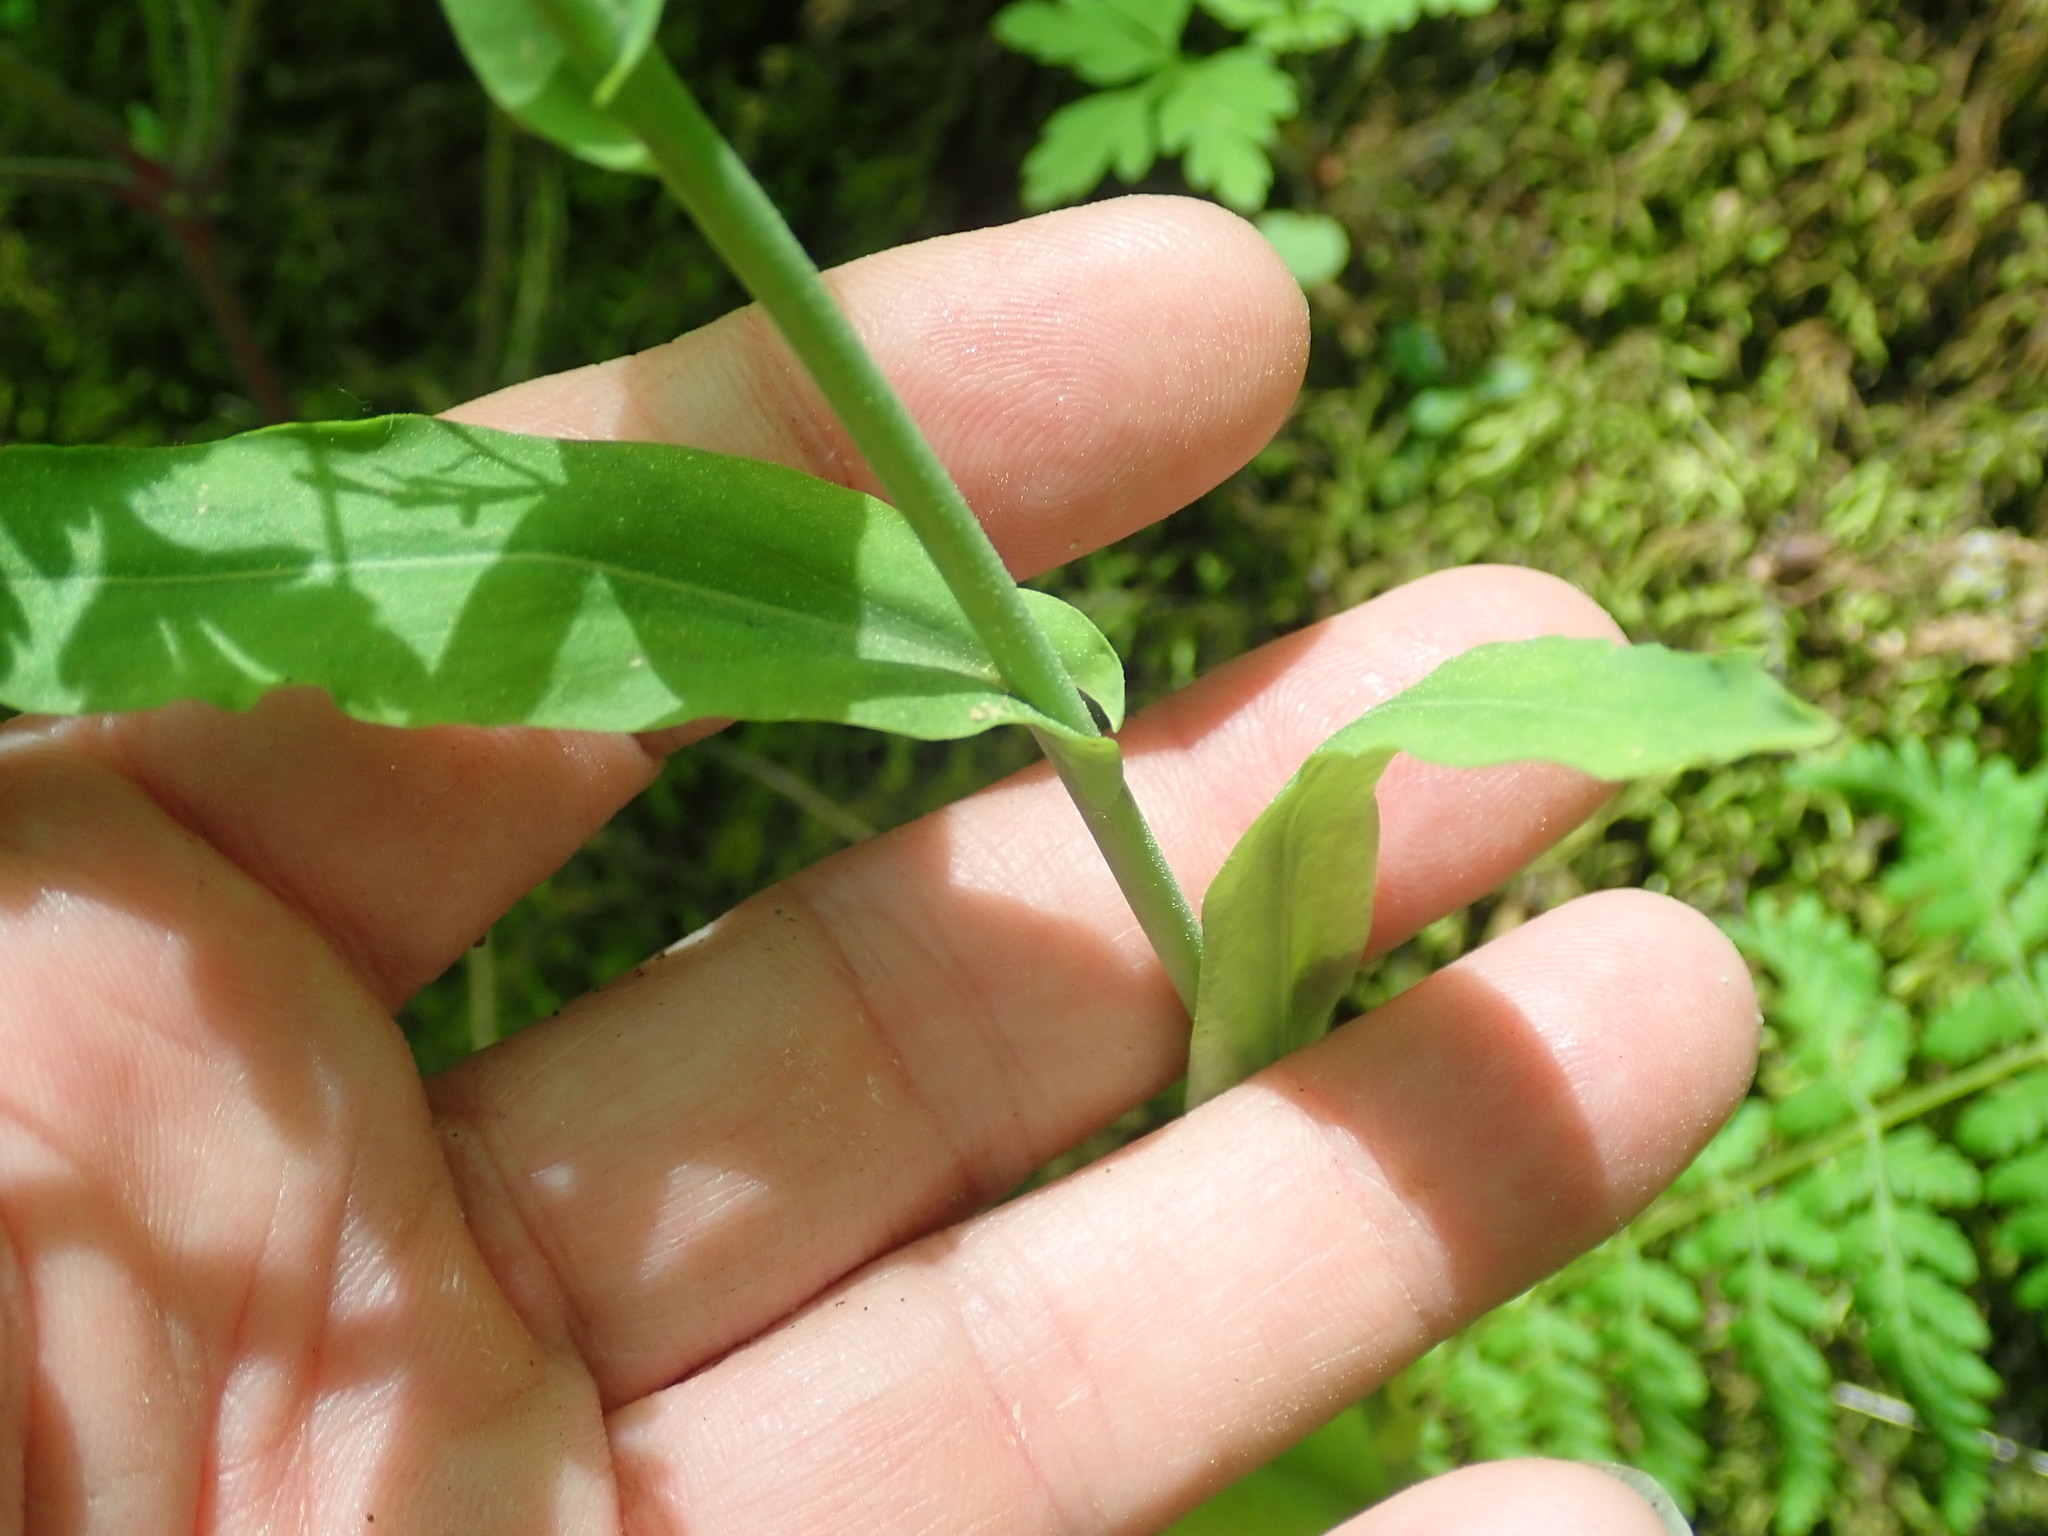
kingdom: Plantae
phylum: Tracheophyta
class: Magnoliopsida
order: Brassicales
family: Brassicaceae
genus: Borodinia
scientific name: Borodinia laevigata
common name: Smooth rockcress
